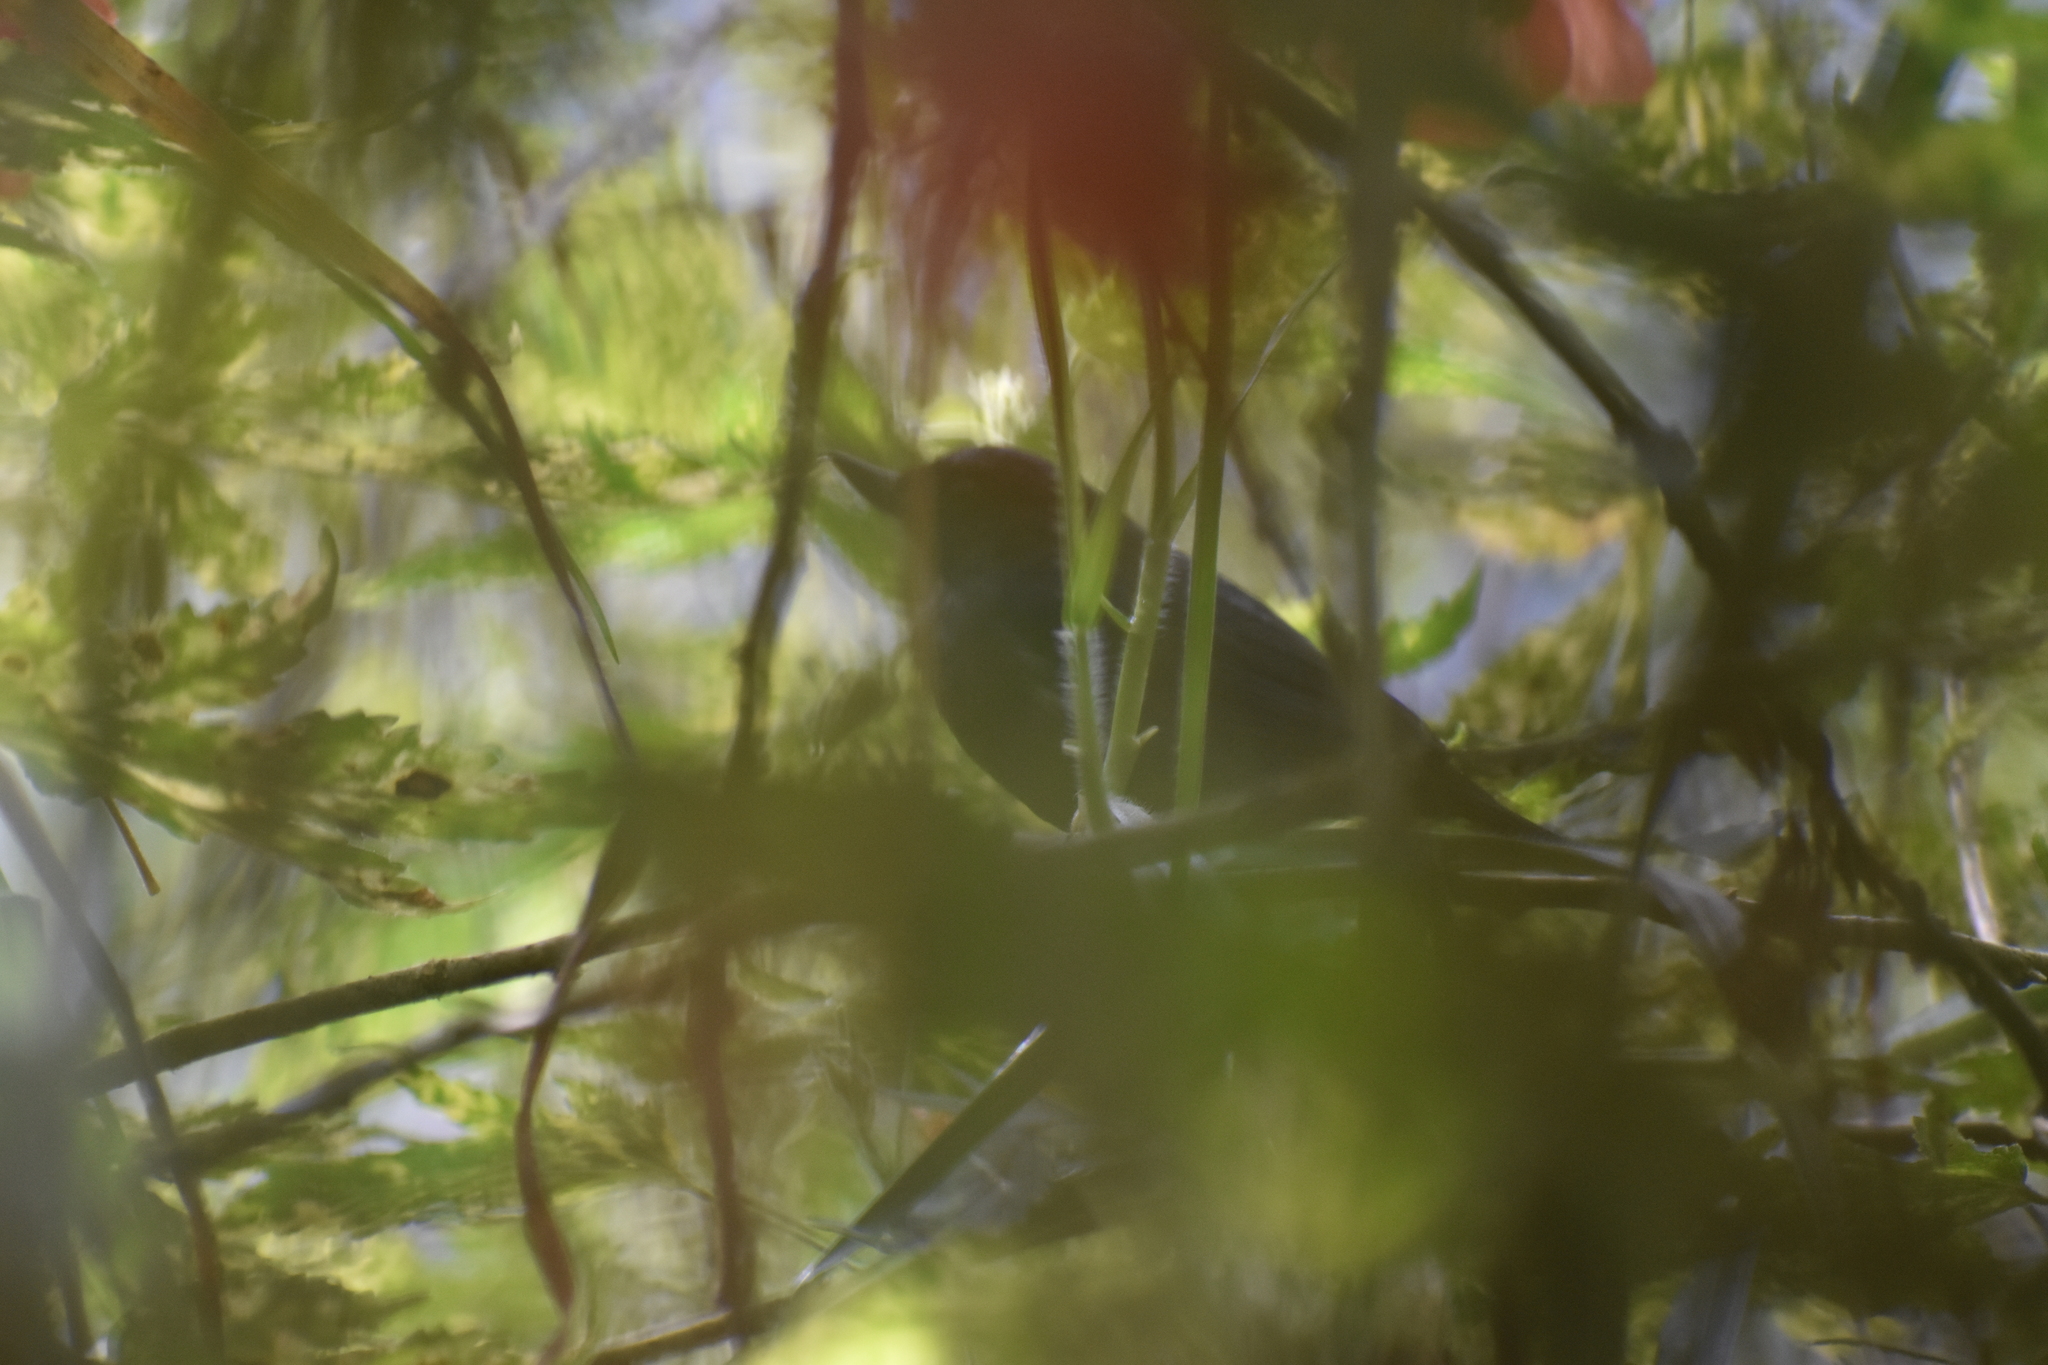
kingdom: Animalia
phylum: Chordata
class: Aves
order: Passeriformes
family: Thraupidae
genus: Diglossa
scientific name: Diglossa albilatera
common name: White-sided flowerpiercer
